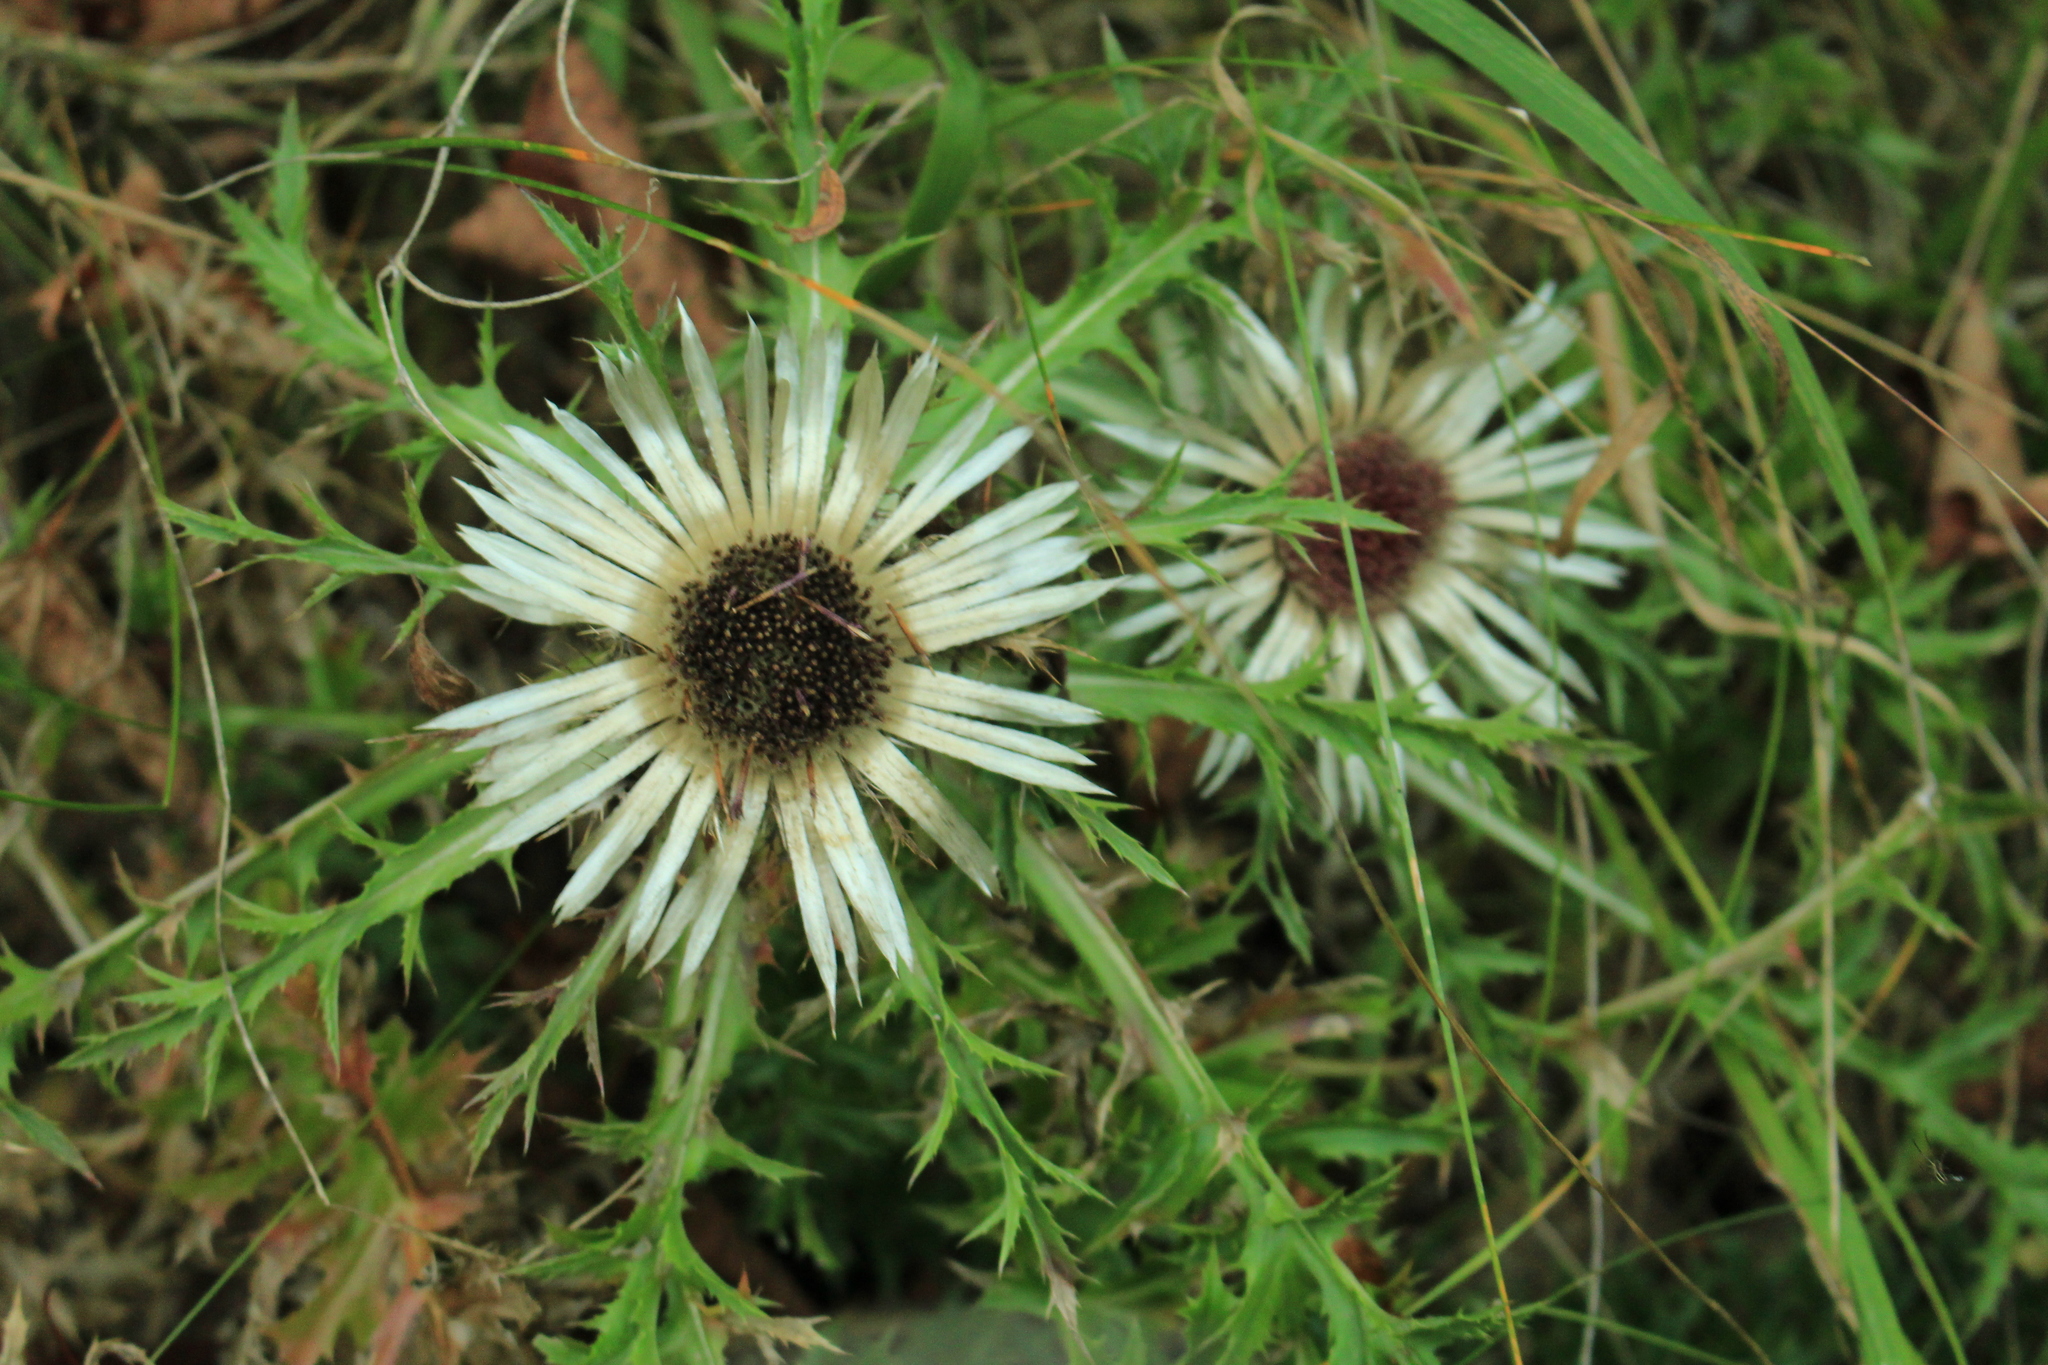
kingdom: Plantae
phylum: Tracheophyta
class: Magnoliopsida
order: Asterales
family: Asteraceae
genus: Carlina
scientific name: Carlina acaulis
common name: Stemless carline thistle
